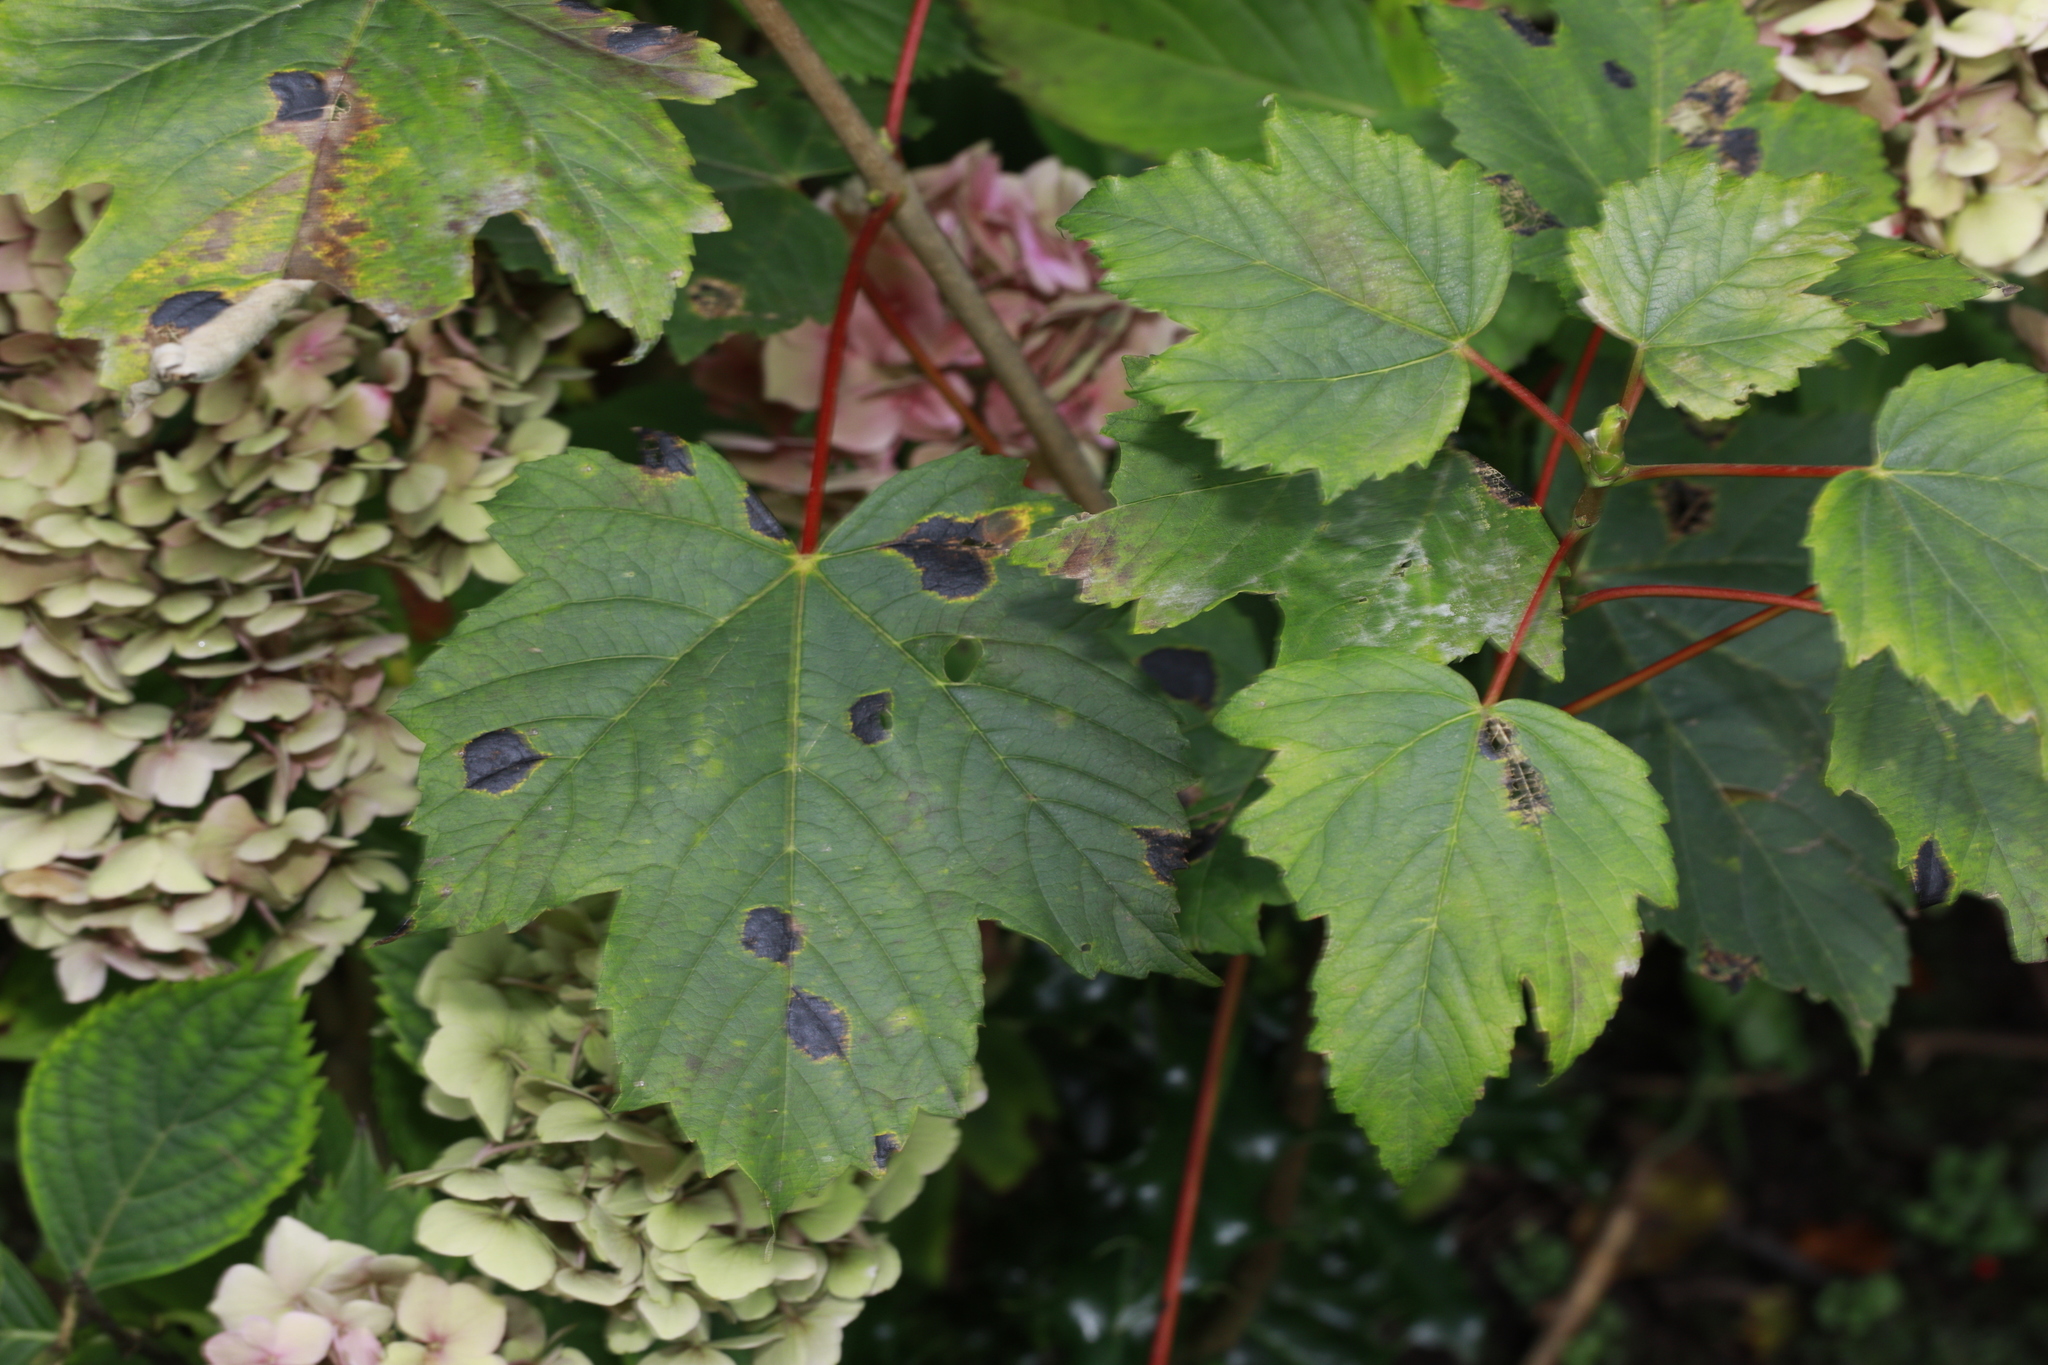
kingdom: Fungi
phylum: Ascomycota
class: Leotiomycetes
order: Rhytismatales
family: Rhytismataceae
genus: Rhytisma
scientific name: Rhytisma acerinum
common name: European tar spot
